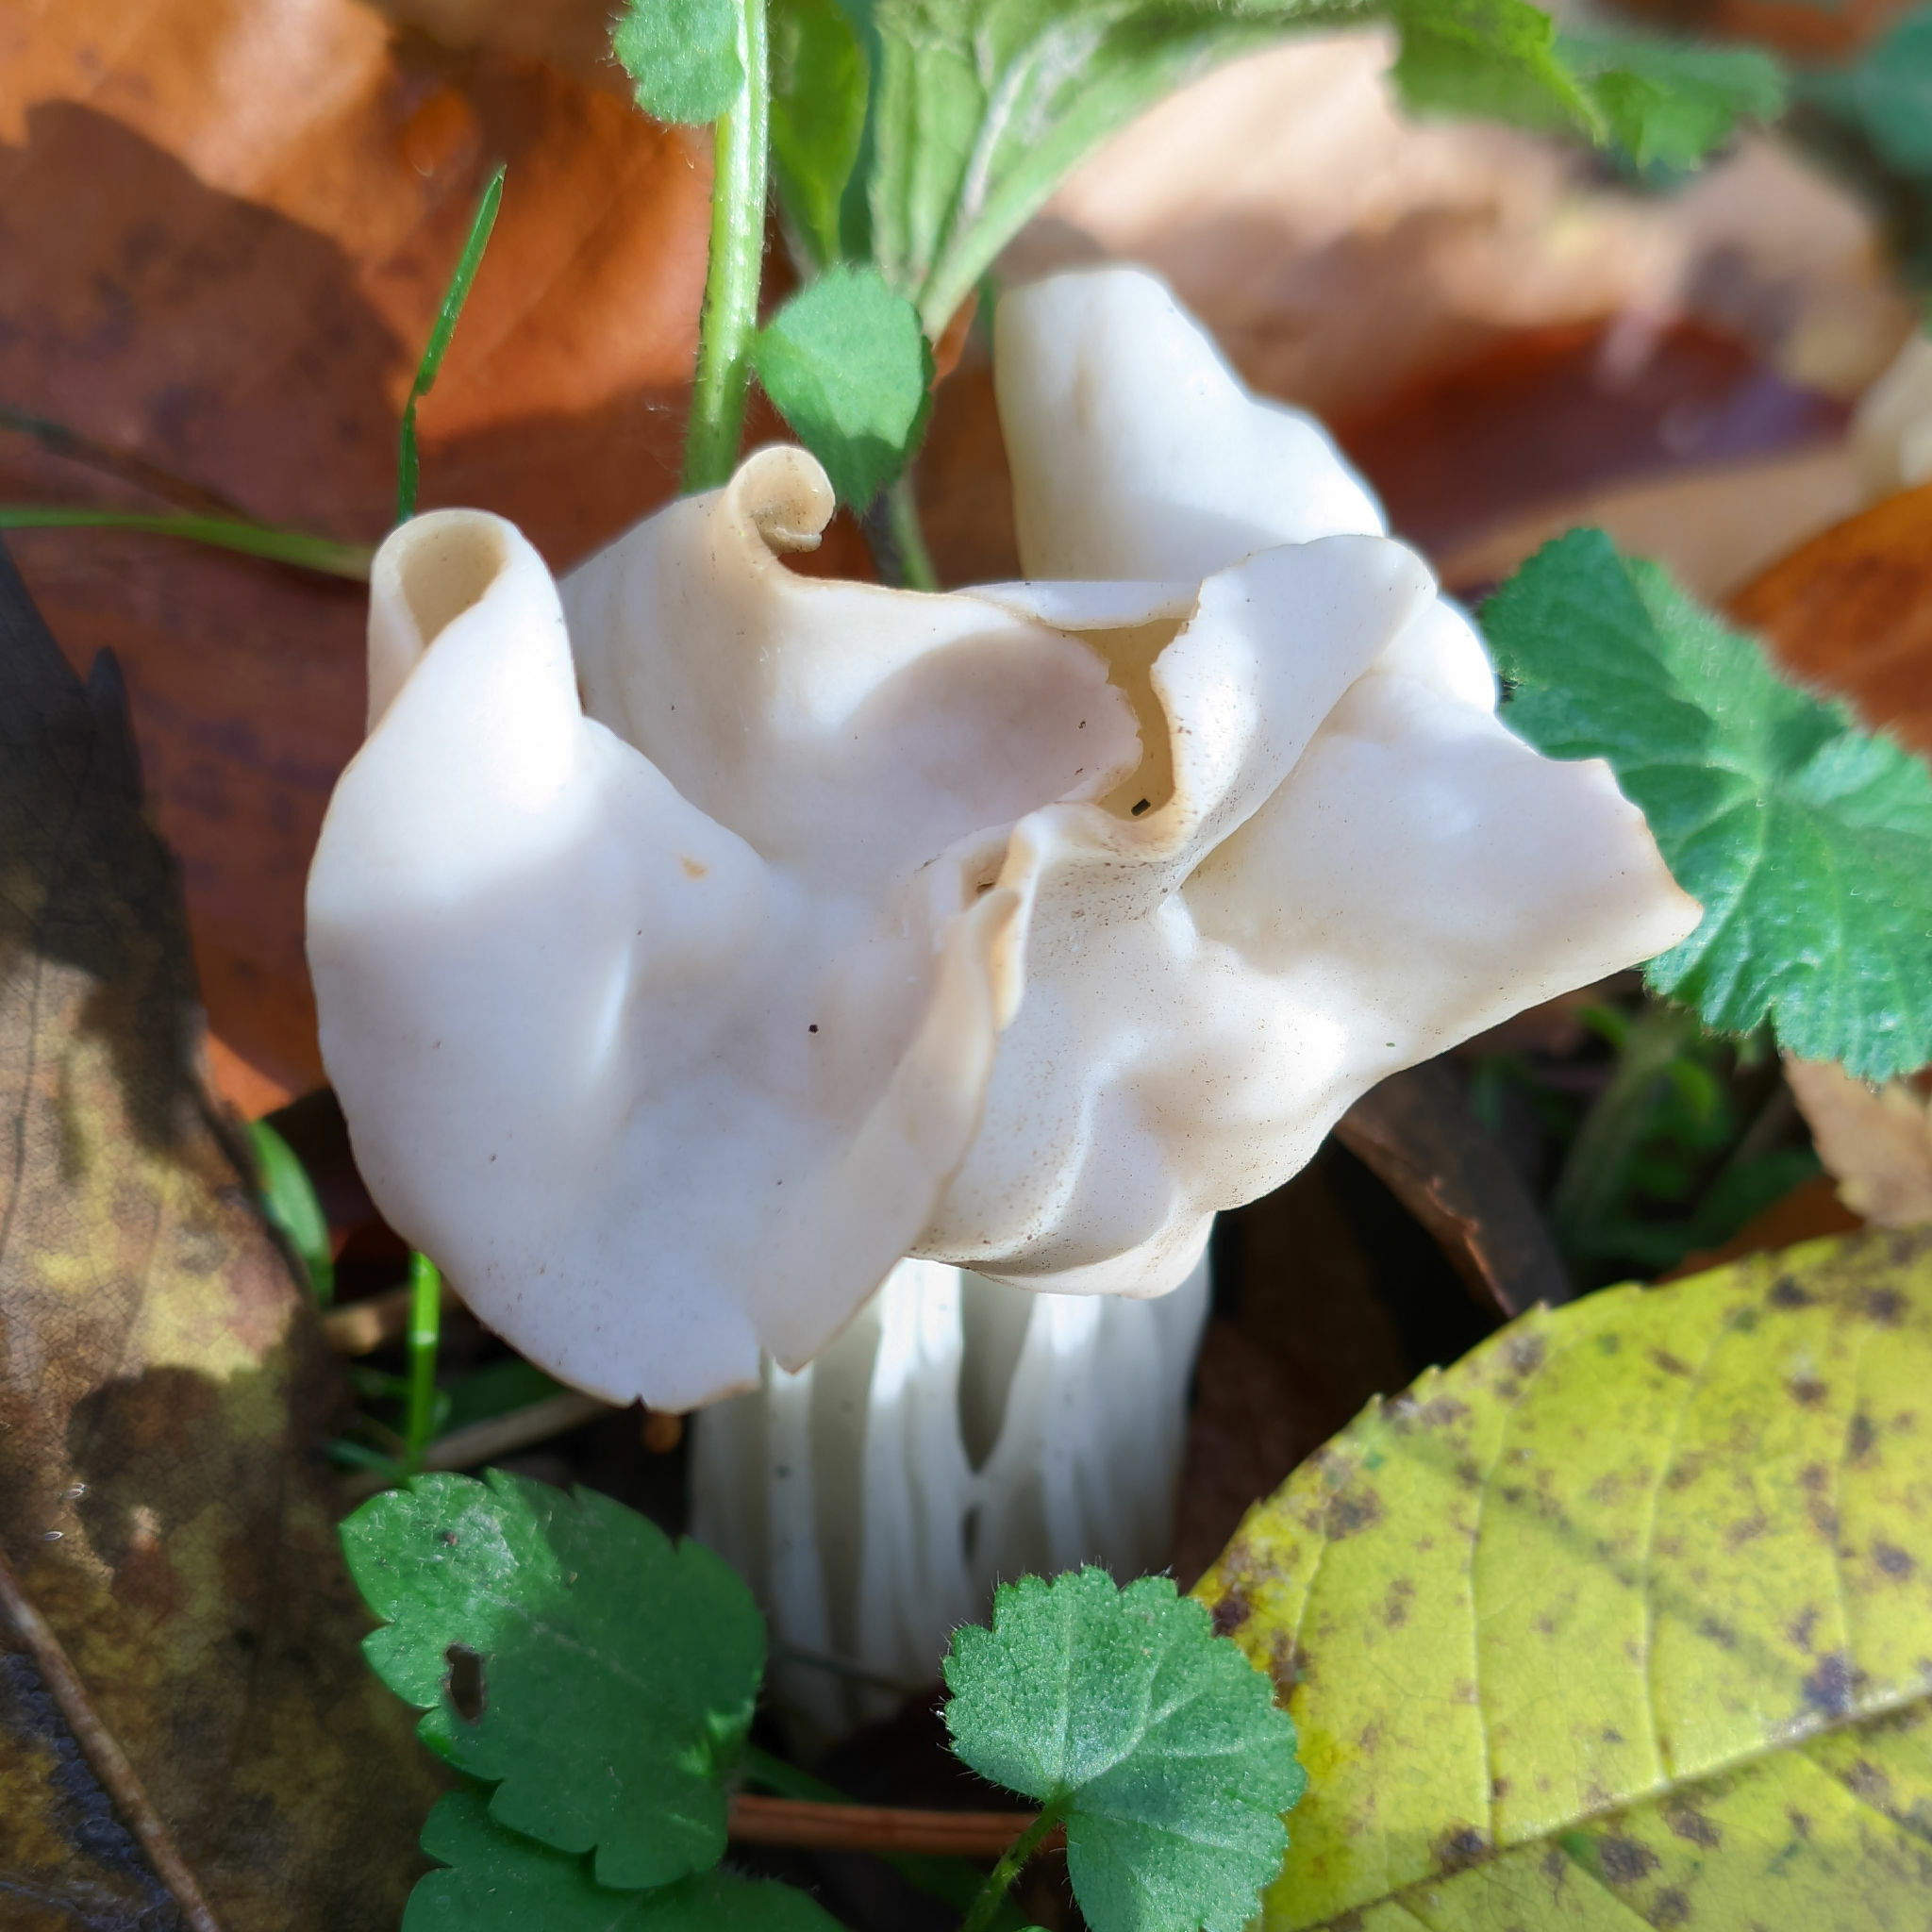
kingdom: Fungi
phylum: Ascomycota
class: Pezizomycetes
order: Pezizales
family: Helvellaceae
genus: Helvella
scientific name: Helvella crispa
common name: White saddle
